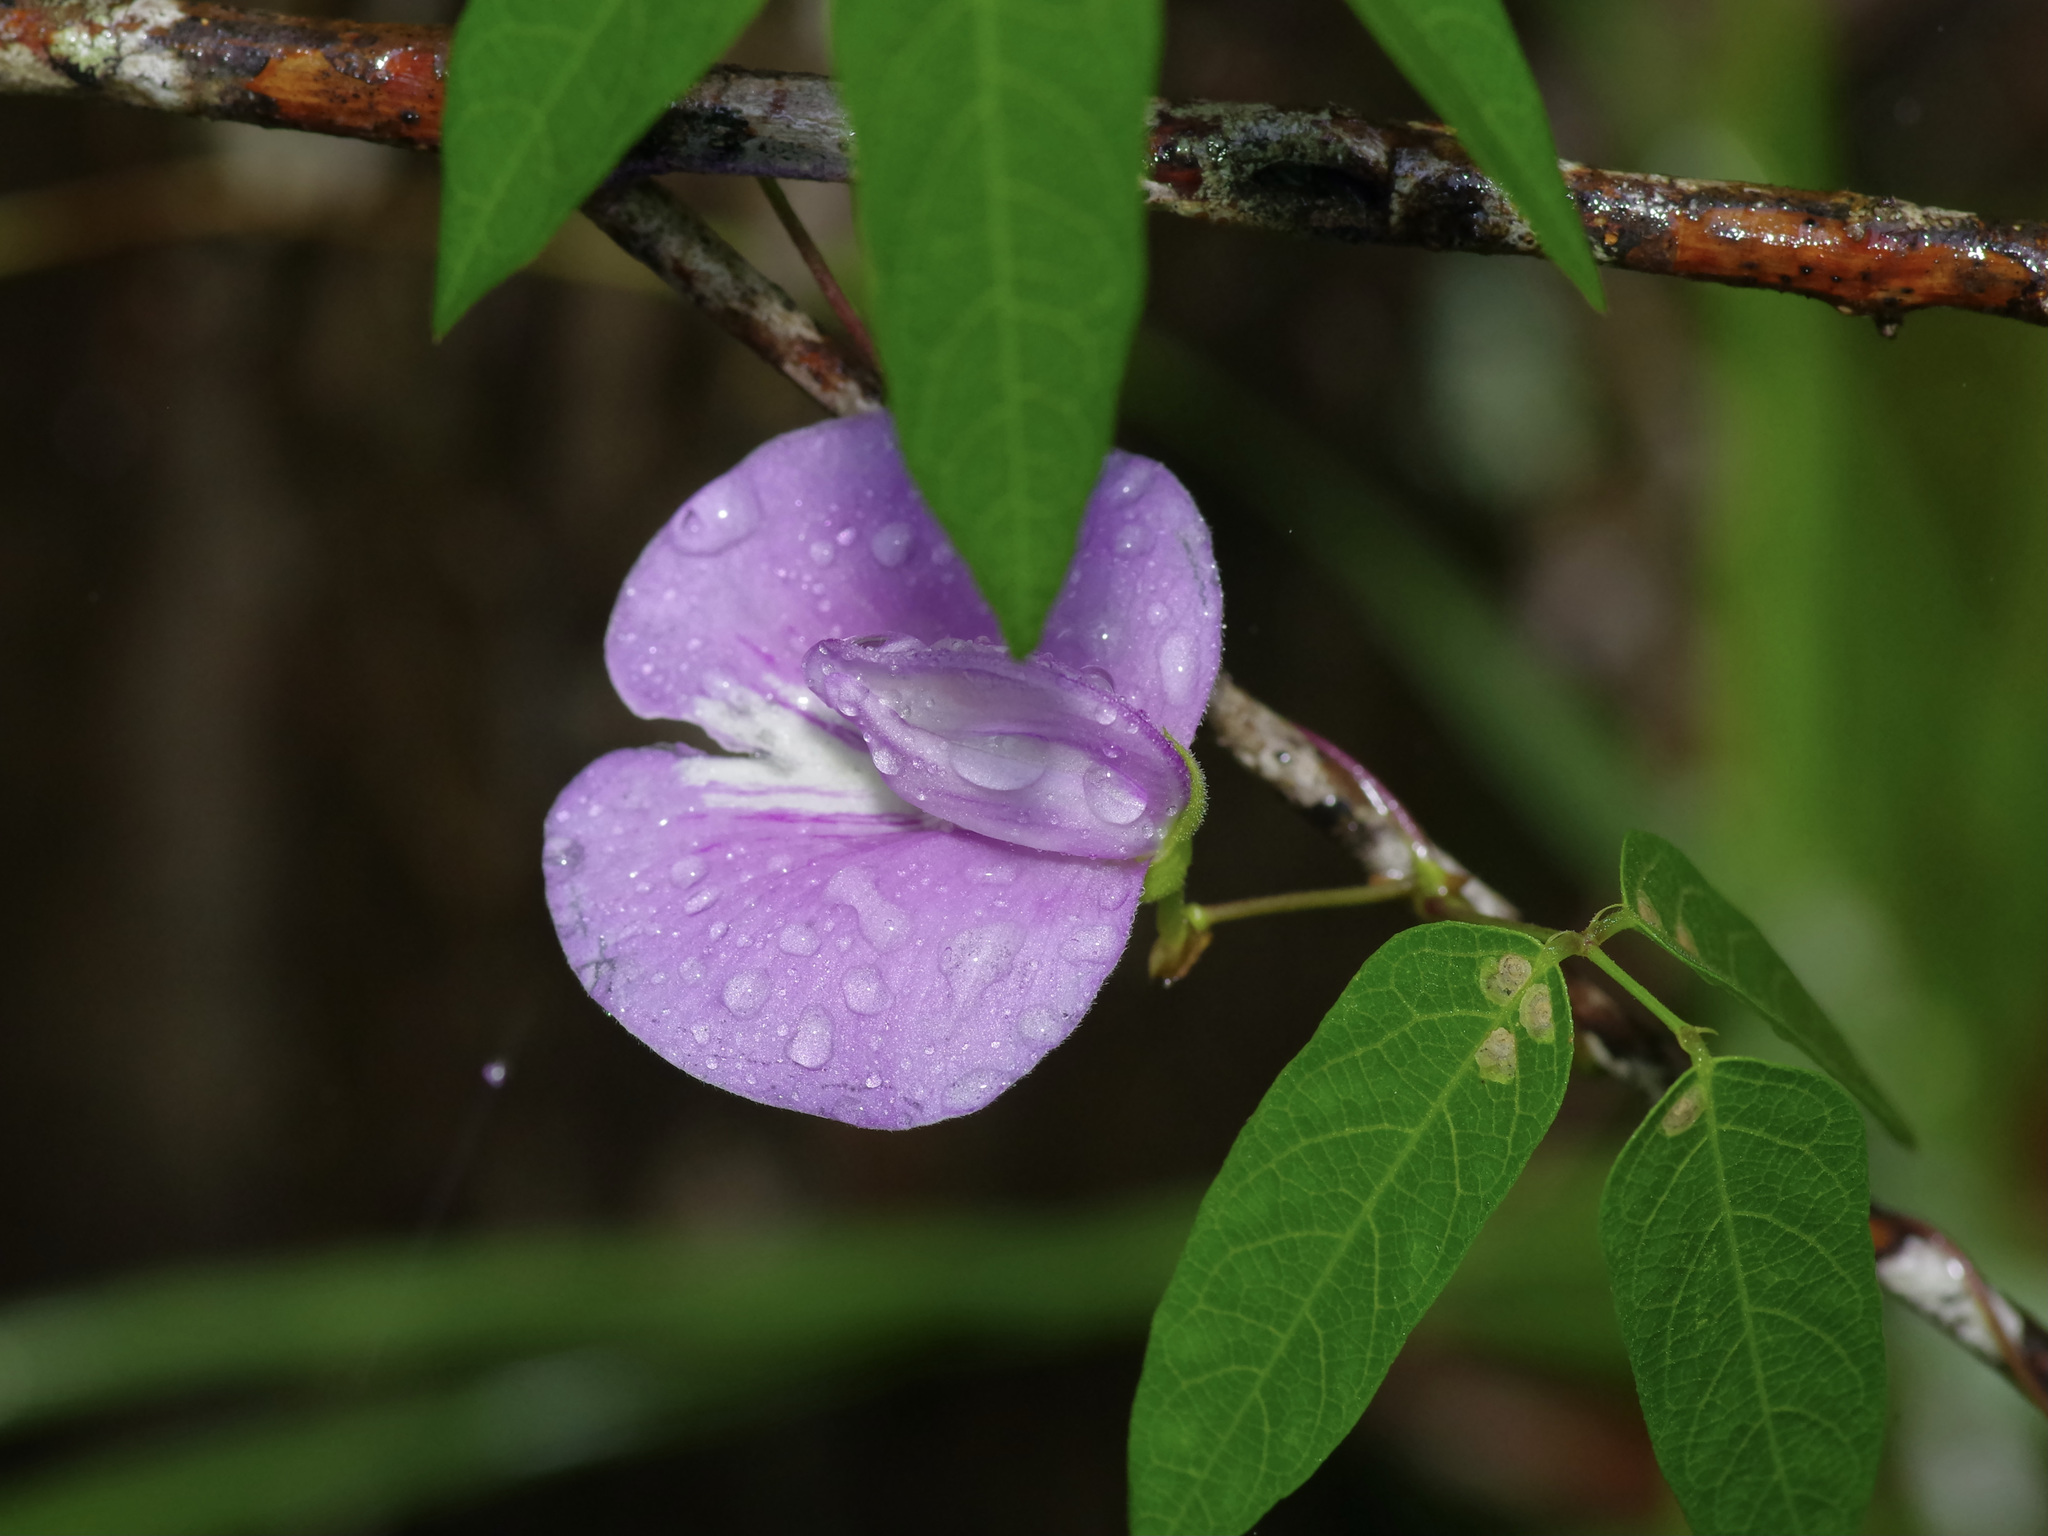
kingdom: Plantae
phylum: Tracheophyta
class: Magnoliopsida
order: Fabales
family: Fabaceae
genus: Centrosema
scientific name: Centrosema virginianum
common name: Butterfly-pea
